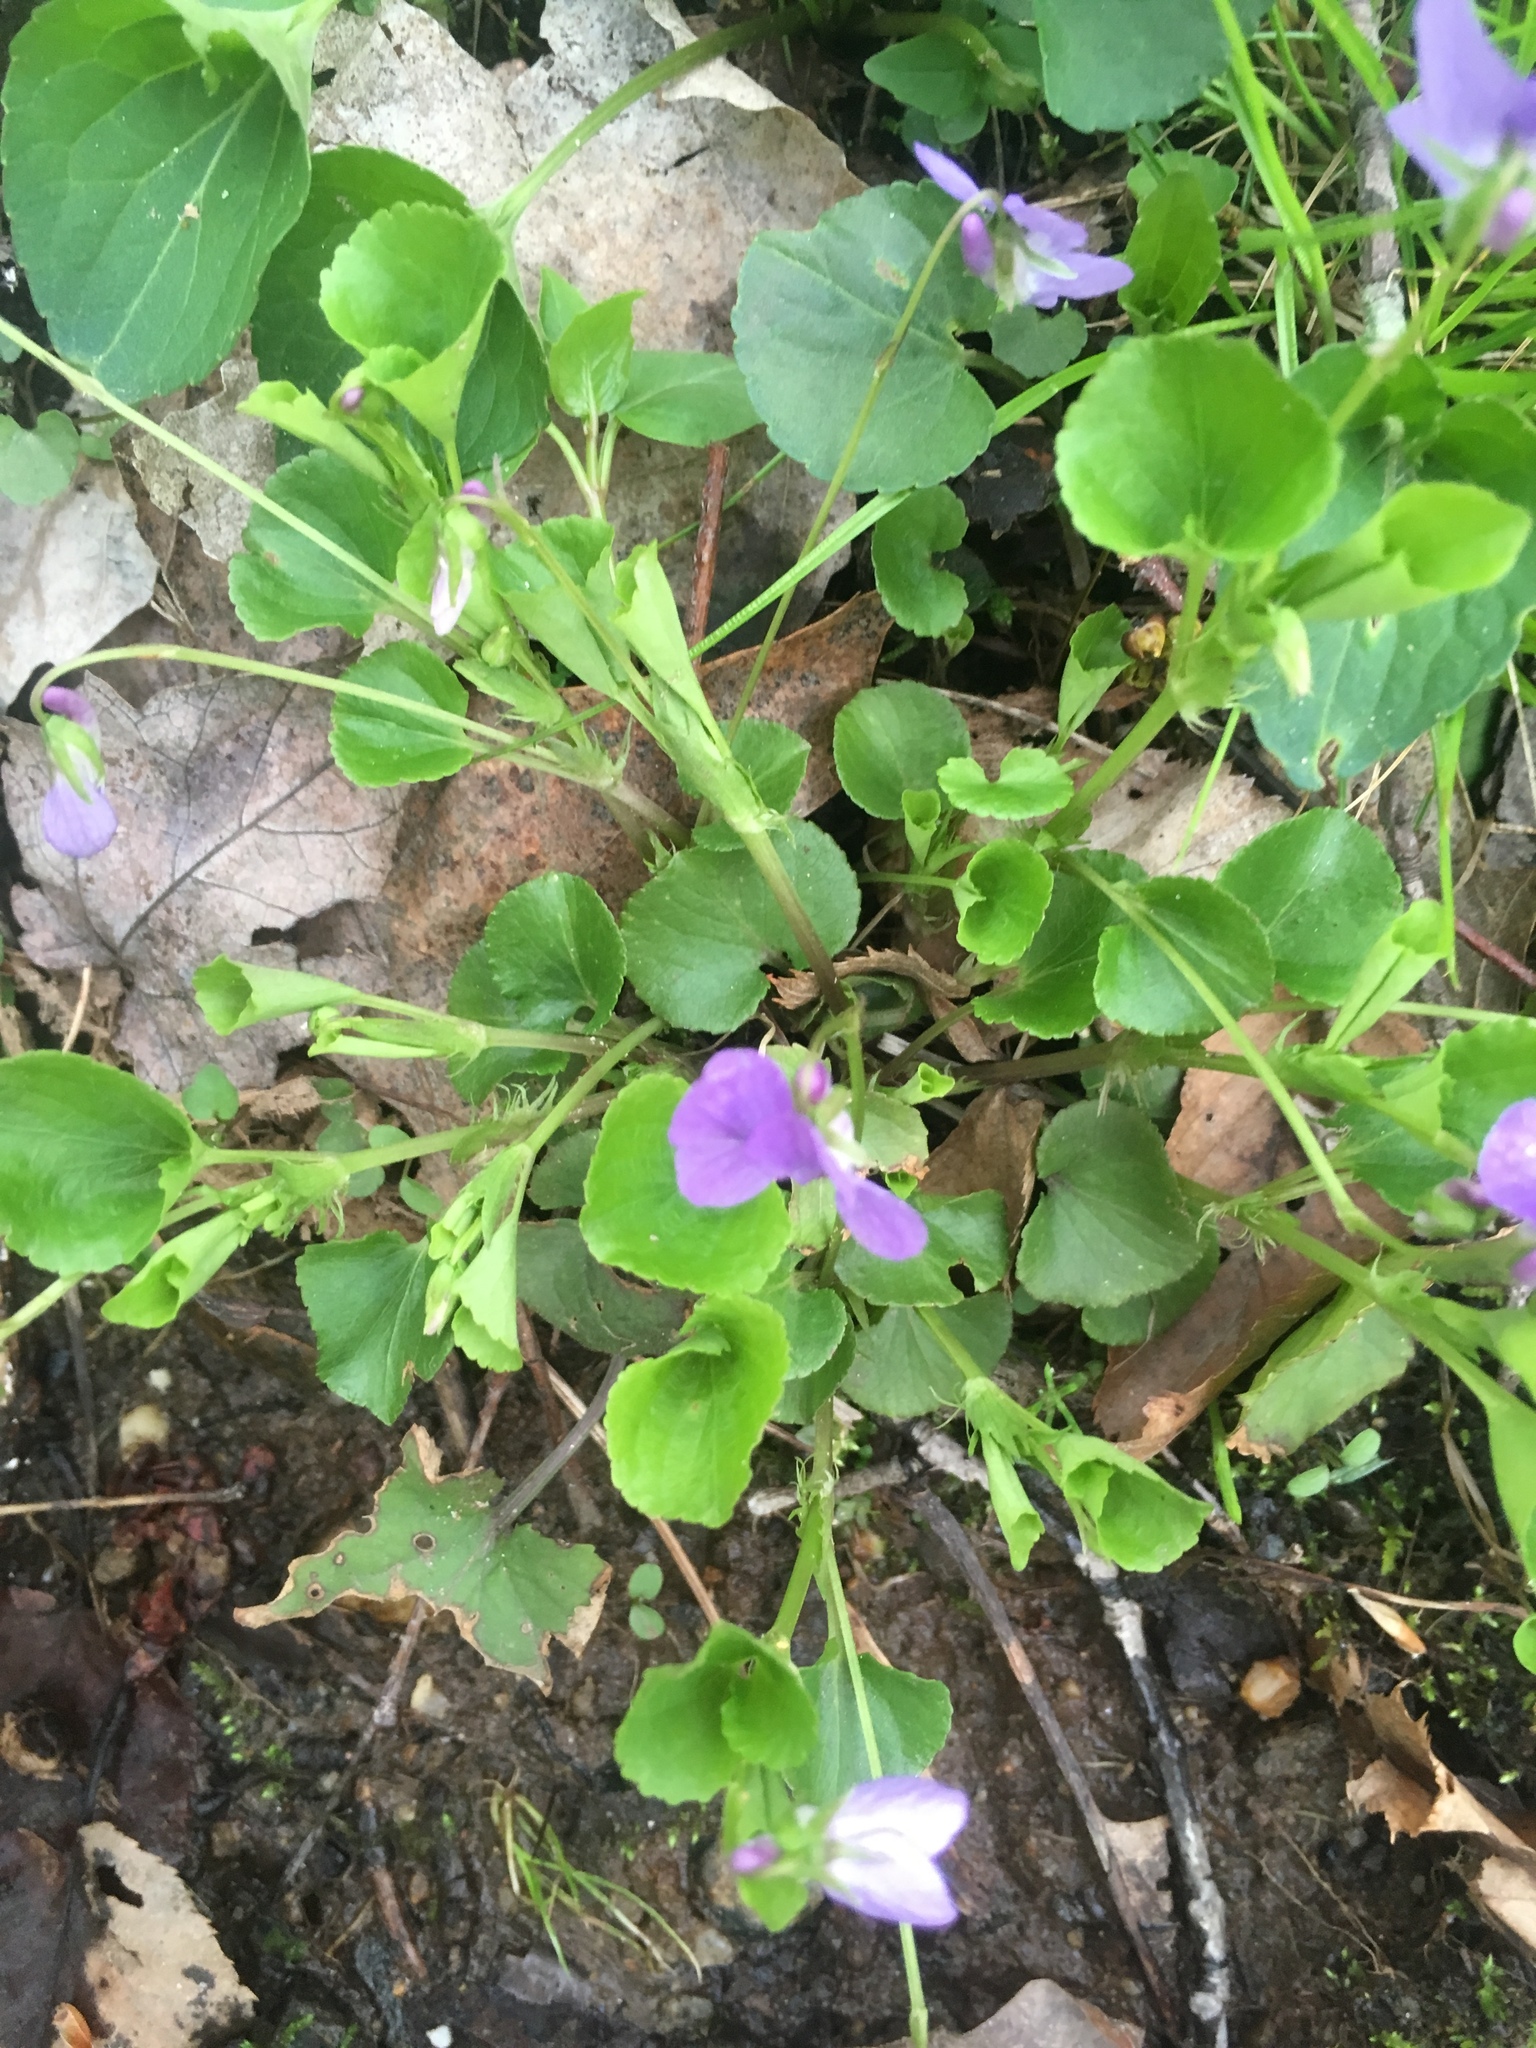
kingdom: Plantae
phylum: Tracheophyta
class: Magnoliopsida
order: Malpighiales
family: Violaceae
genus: Viola
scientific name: Viola sororia
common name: Dooryard violet
